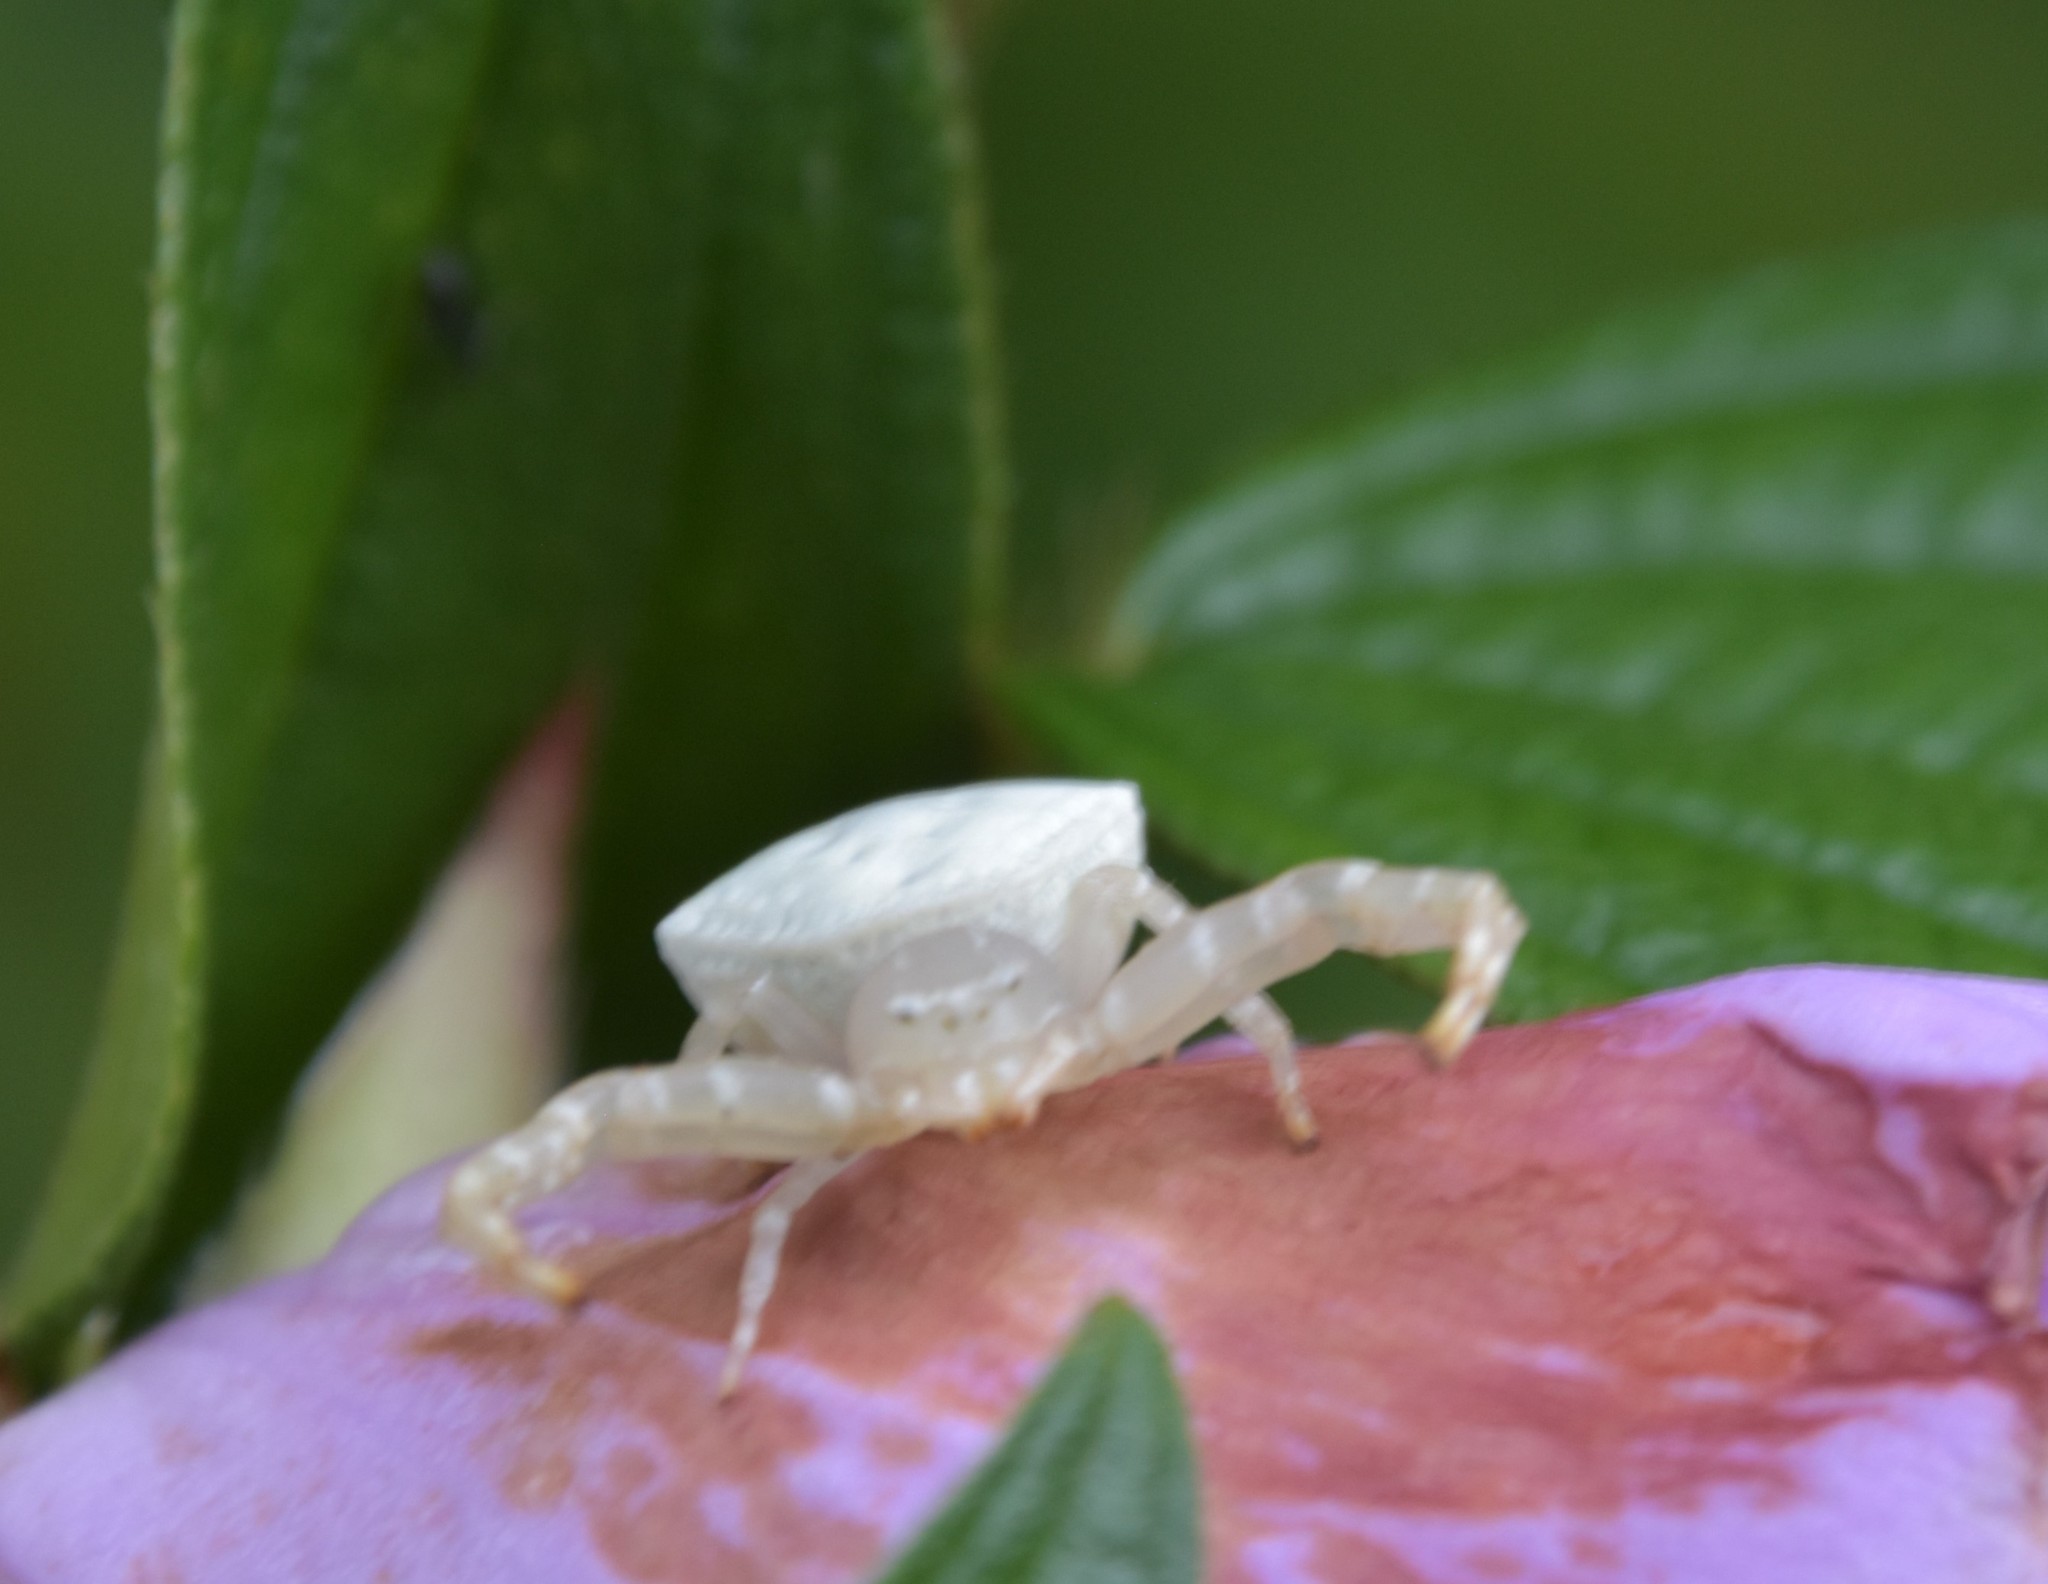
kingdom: Animalia
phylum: Arthropoda
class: Arachnida
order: Araneae
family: Thomisidae
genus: Thomisus
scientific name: Thomisus spectabilis
